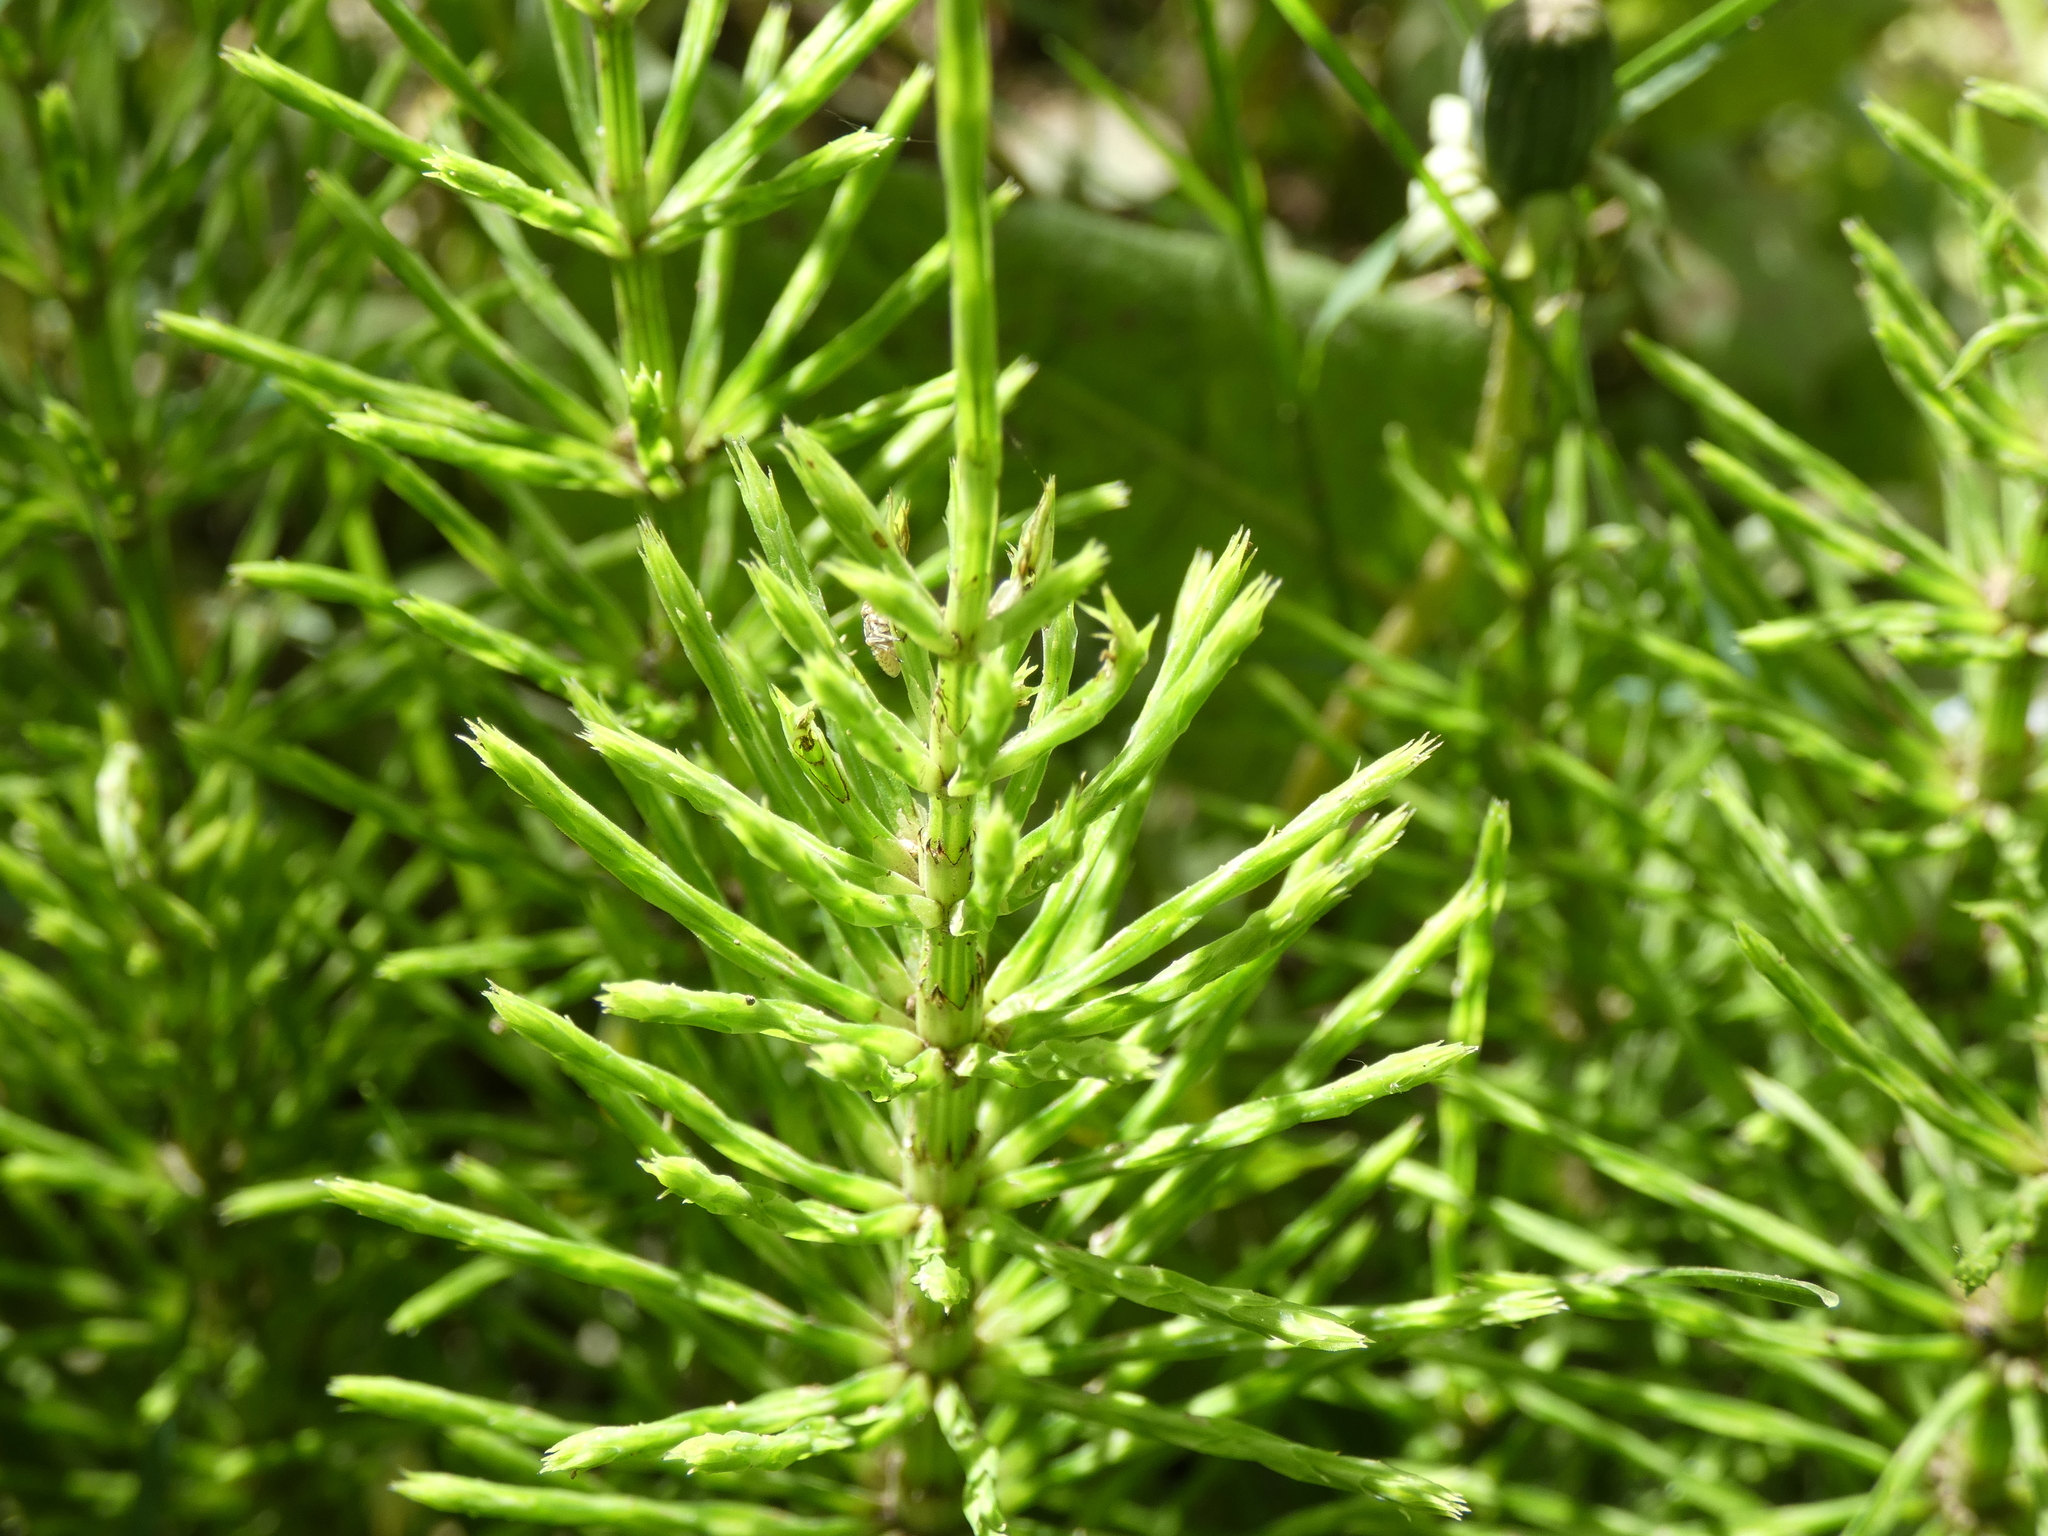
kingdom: Plantae
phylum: Tracheophyta
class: Polypodiopsida
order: Equisetales
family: Equisetaceae
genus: Equisetum
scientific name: Equisetum arvense
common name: Field horsetail
